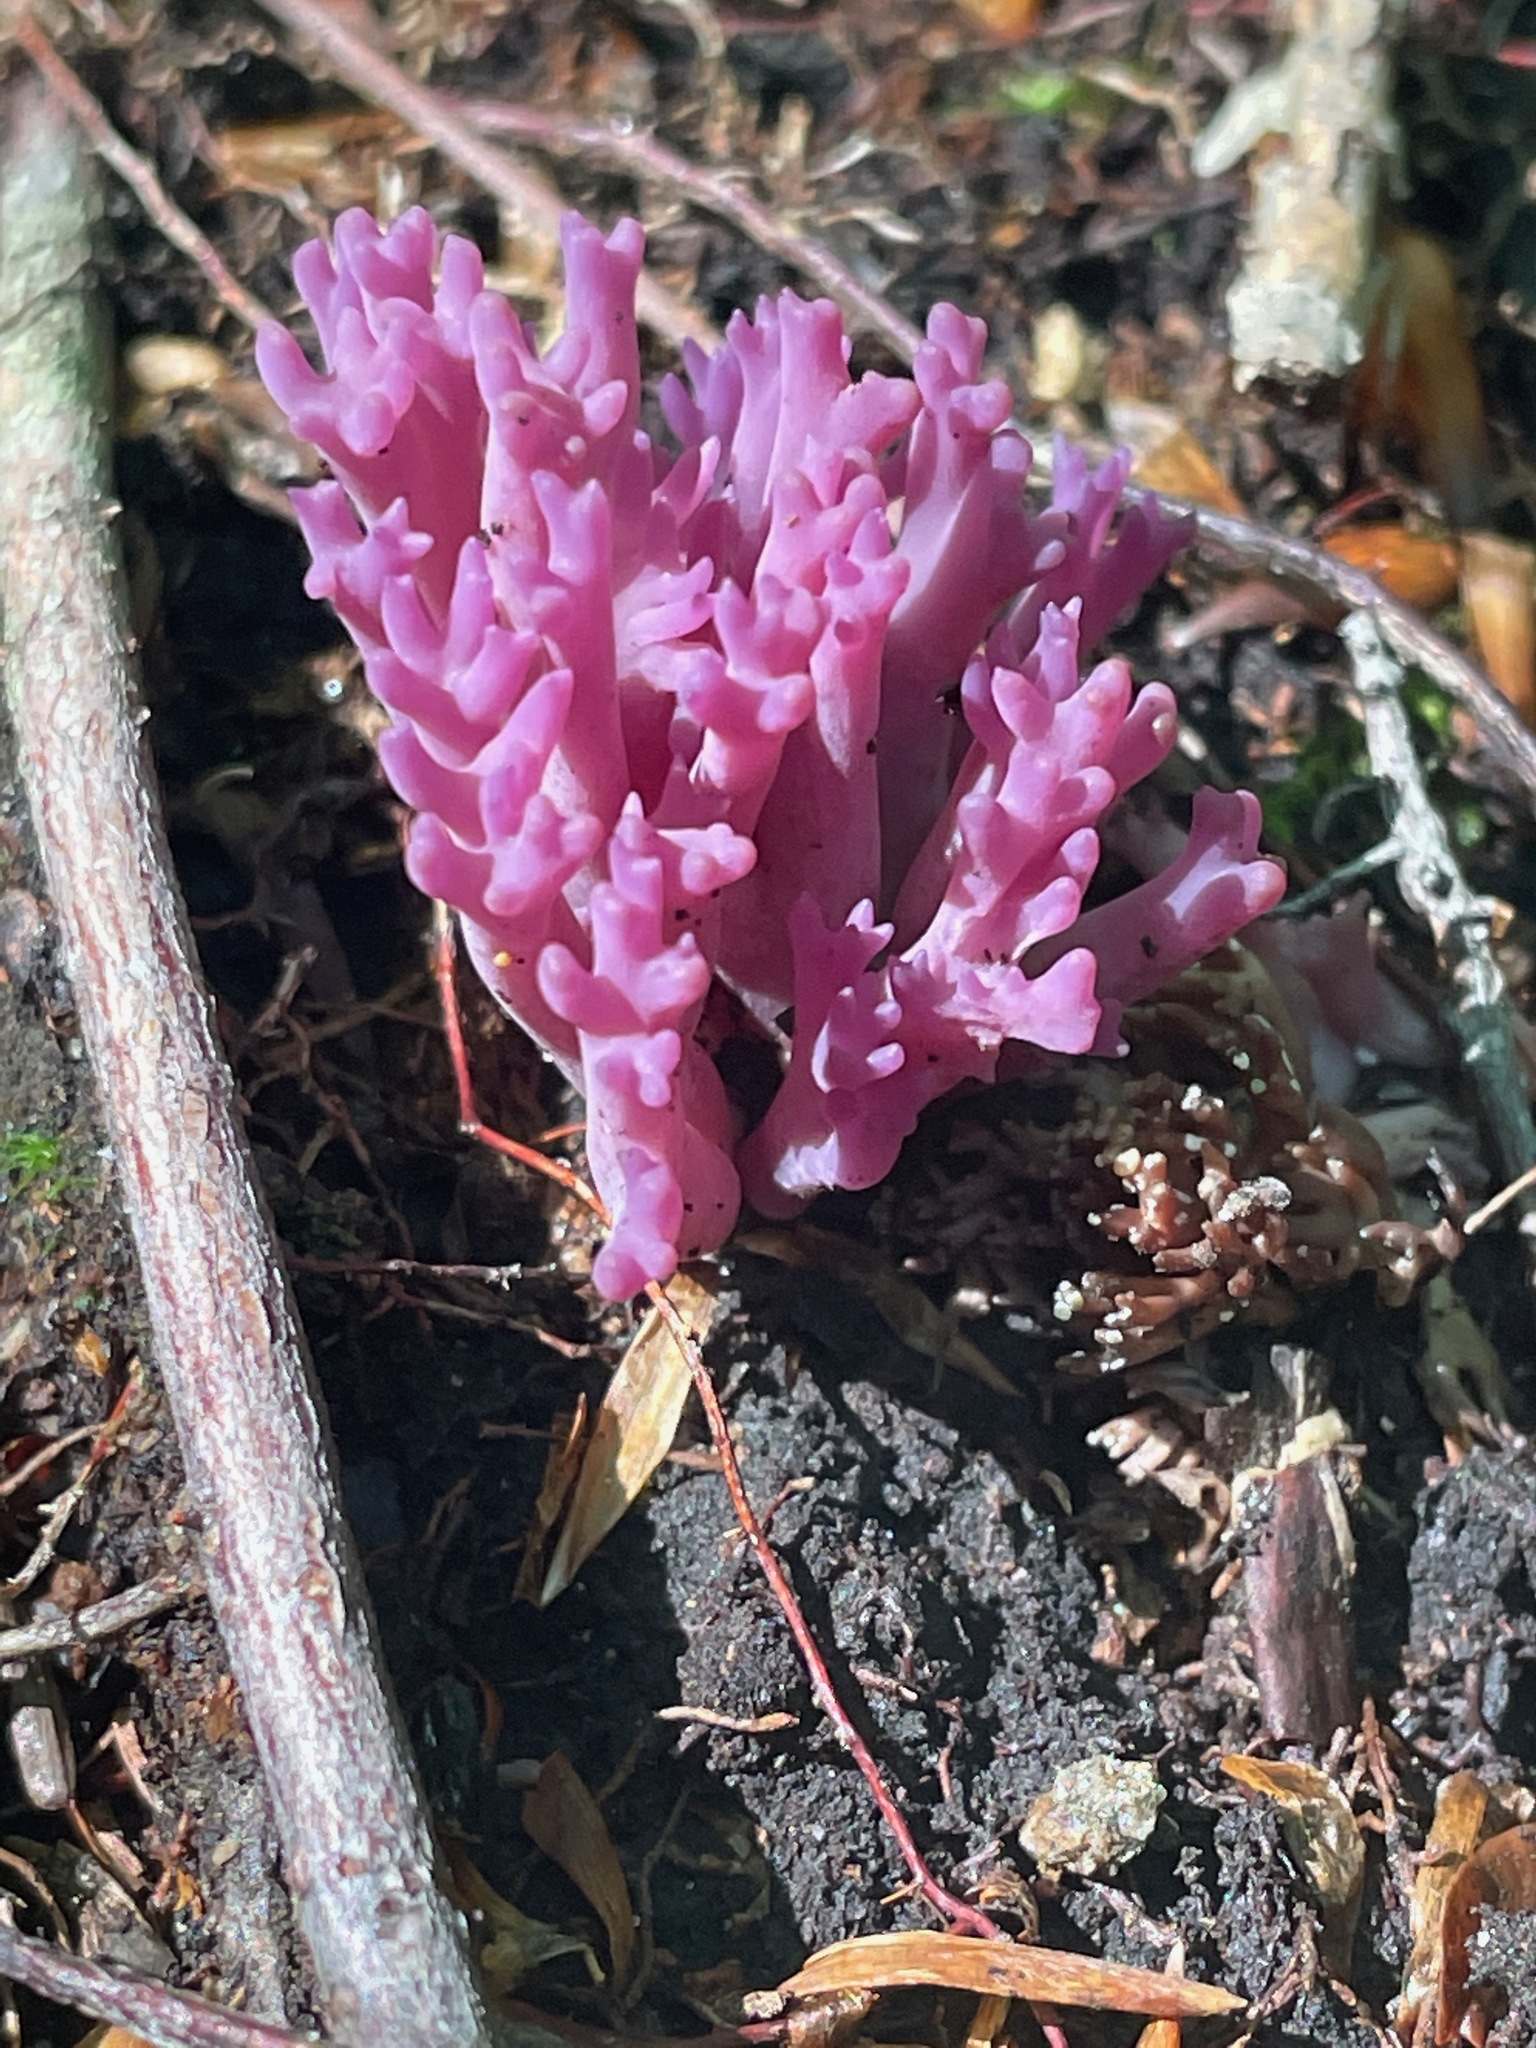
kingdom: Fungi
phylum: Basidiomycota
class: Agaricomycetes
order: Agaricales
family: Clavariaceae
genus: Clavaria
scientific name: Clavaria zollingeri
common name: Violet coral
